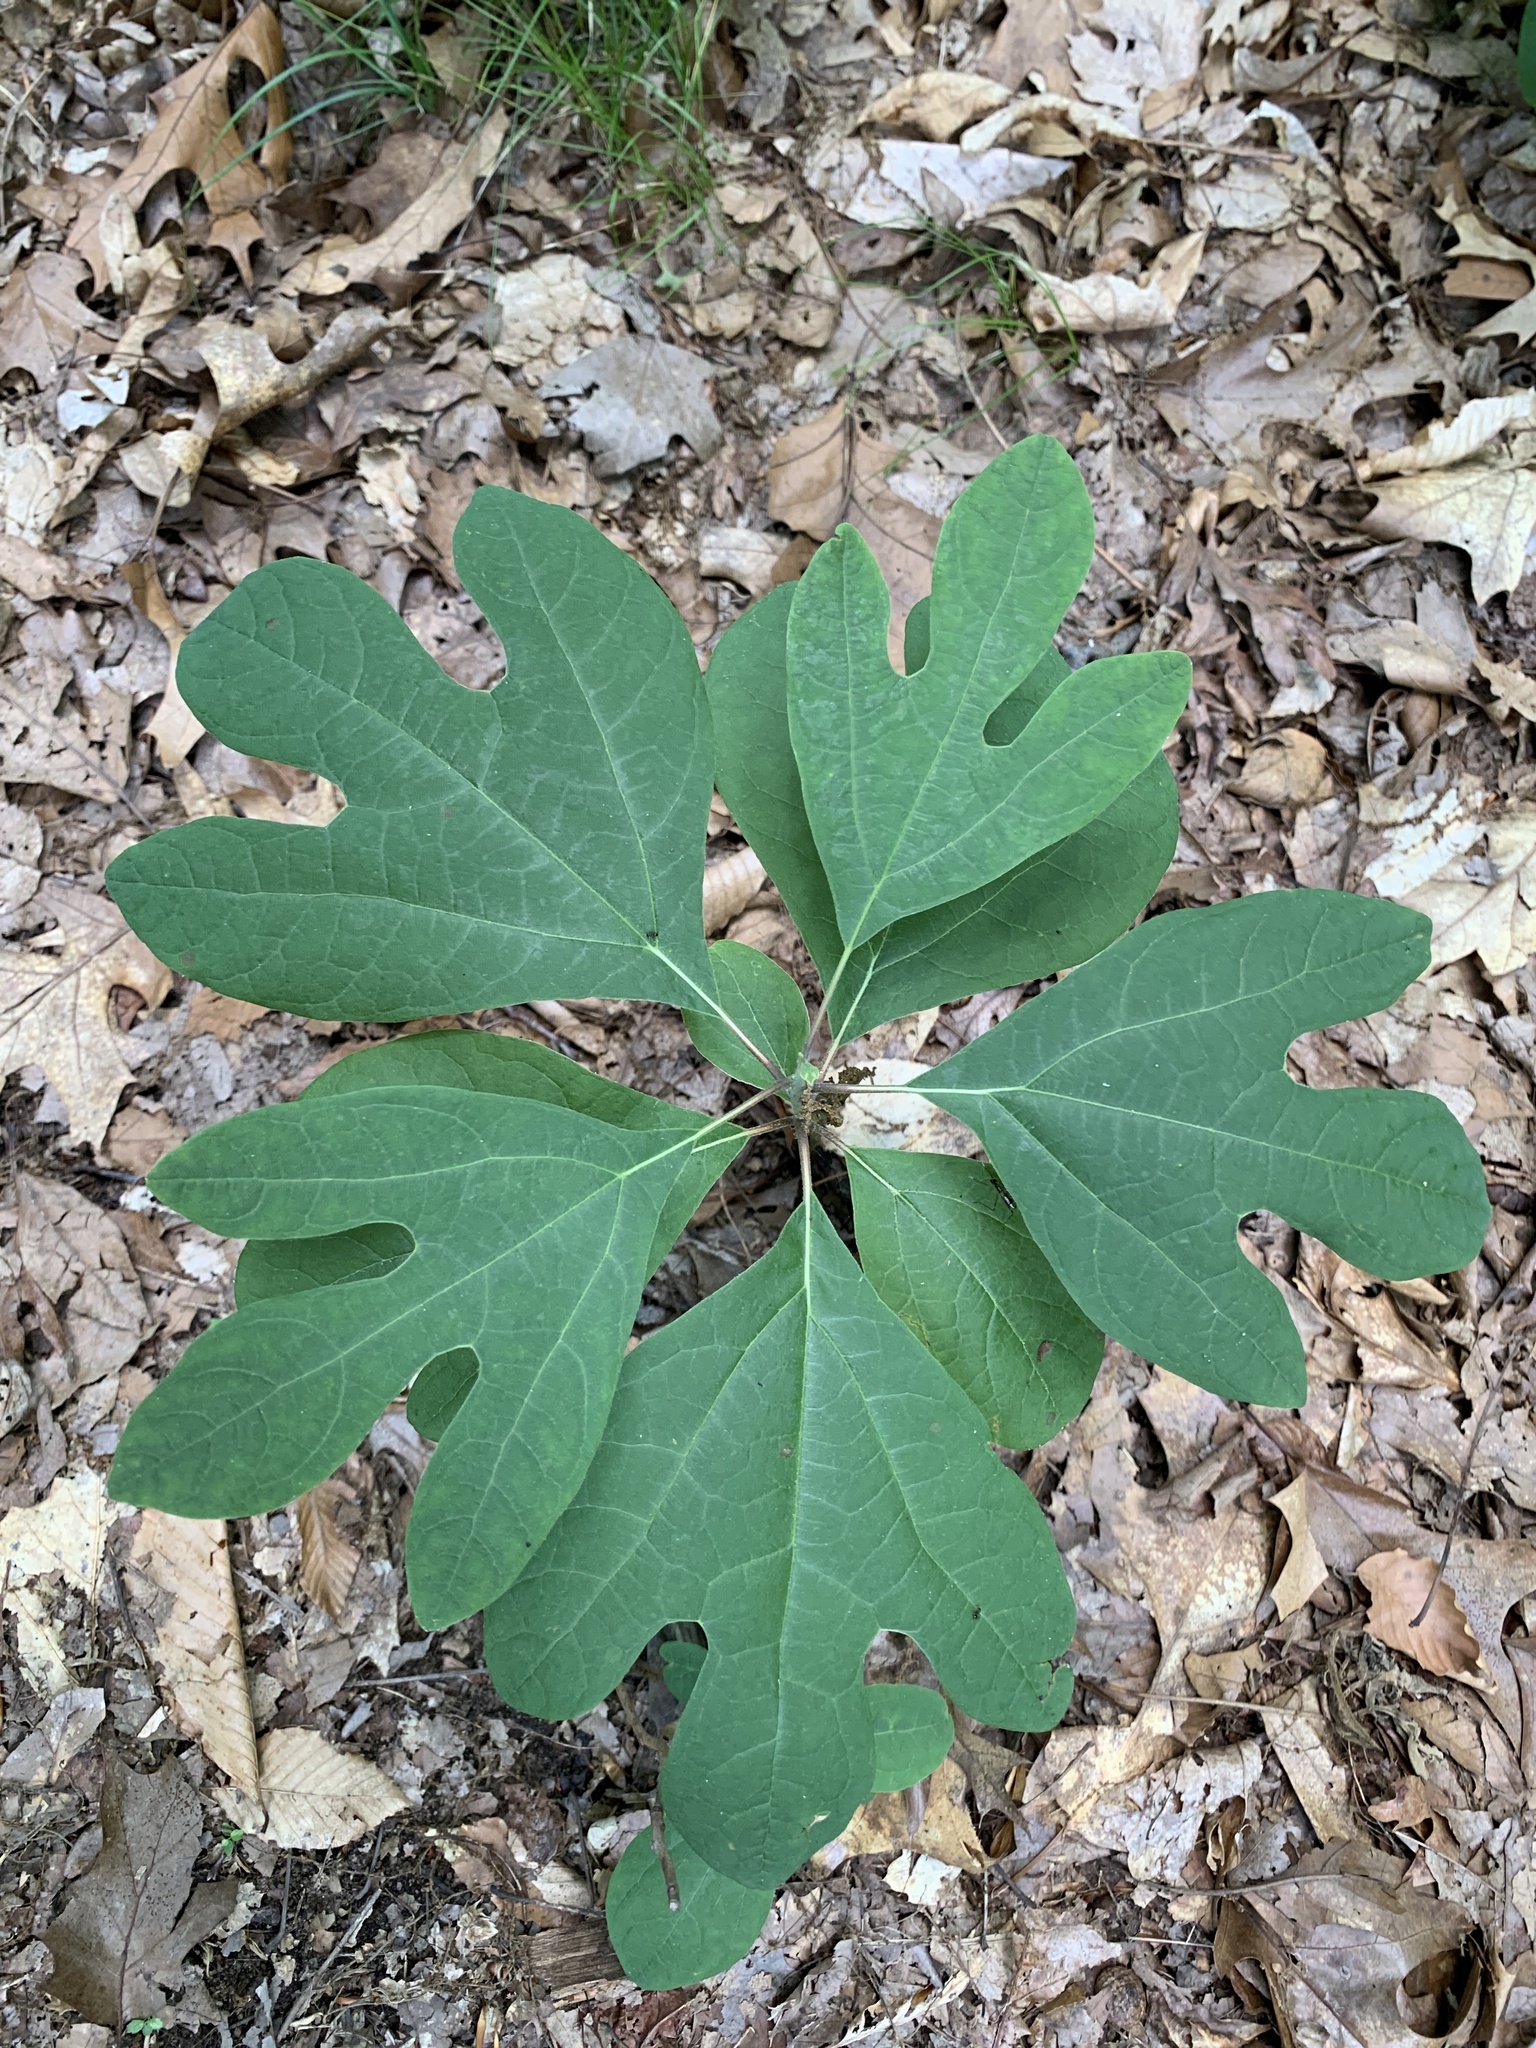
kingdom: Plantae
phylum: Tracheophyta
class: Magnoliopsida
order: Laurales
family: Lauraceae
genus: Sassafras
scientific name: Sassafras albidum
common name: Sassafras
